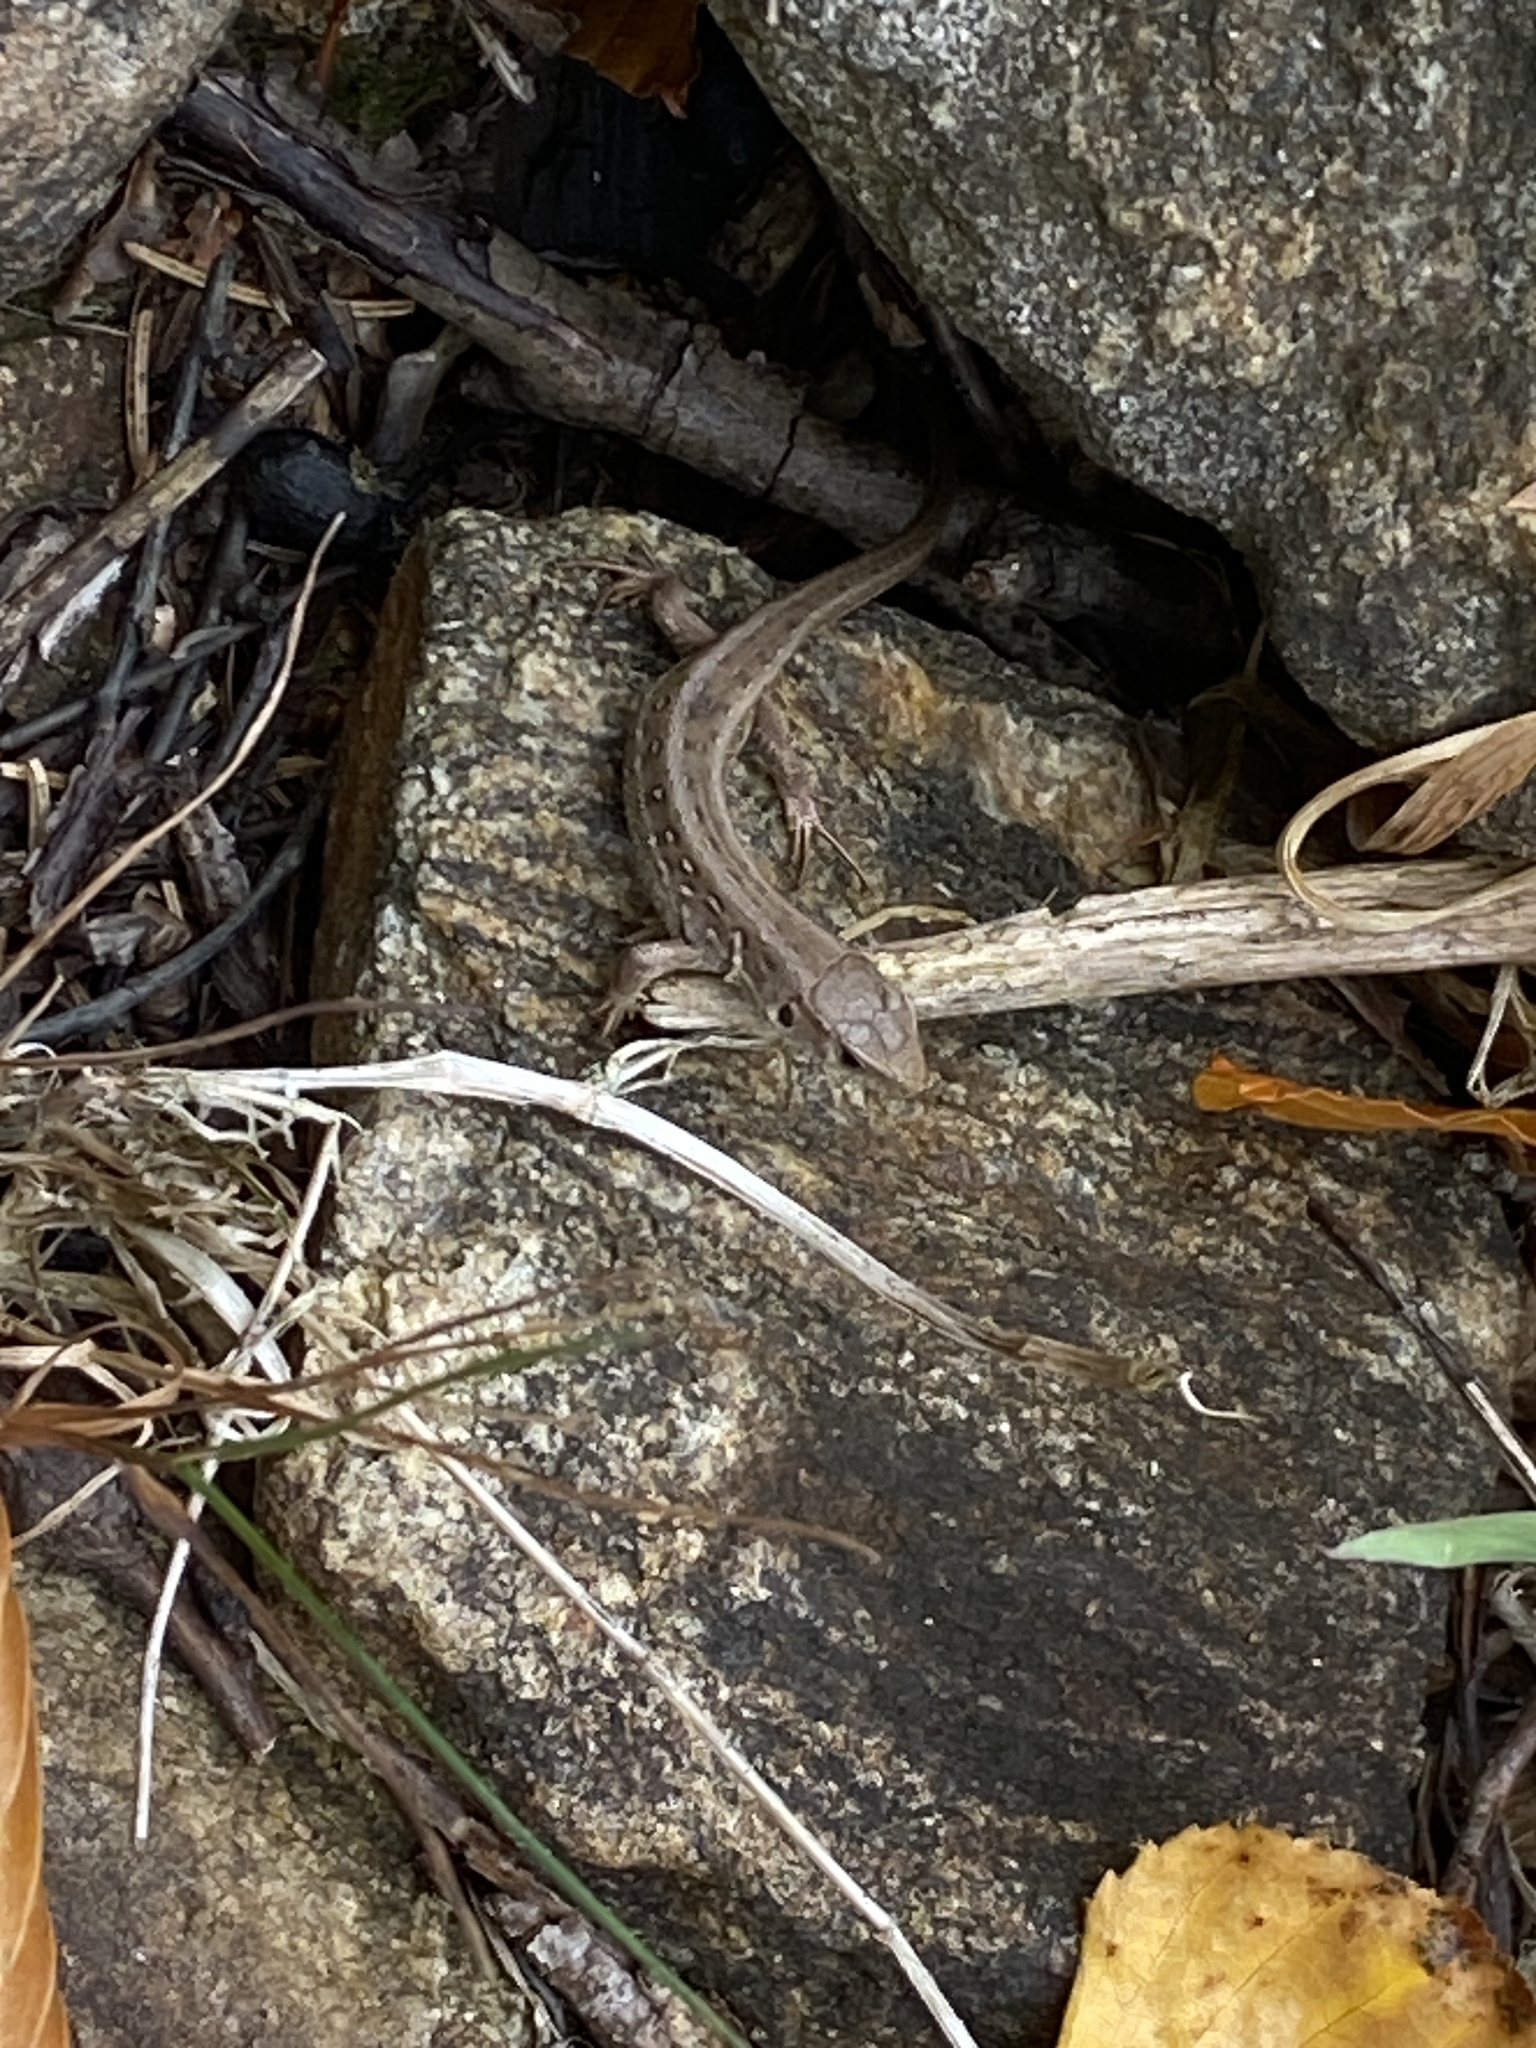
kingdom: Animalia
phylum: Chordata
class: Squamata
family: Lacertidae
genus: Lacerta
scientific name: Lacerta agilis
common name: Sand lizard
